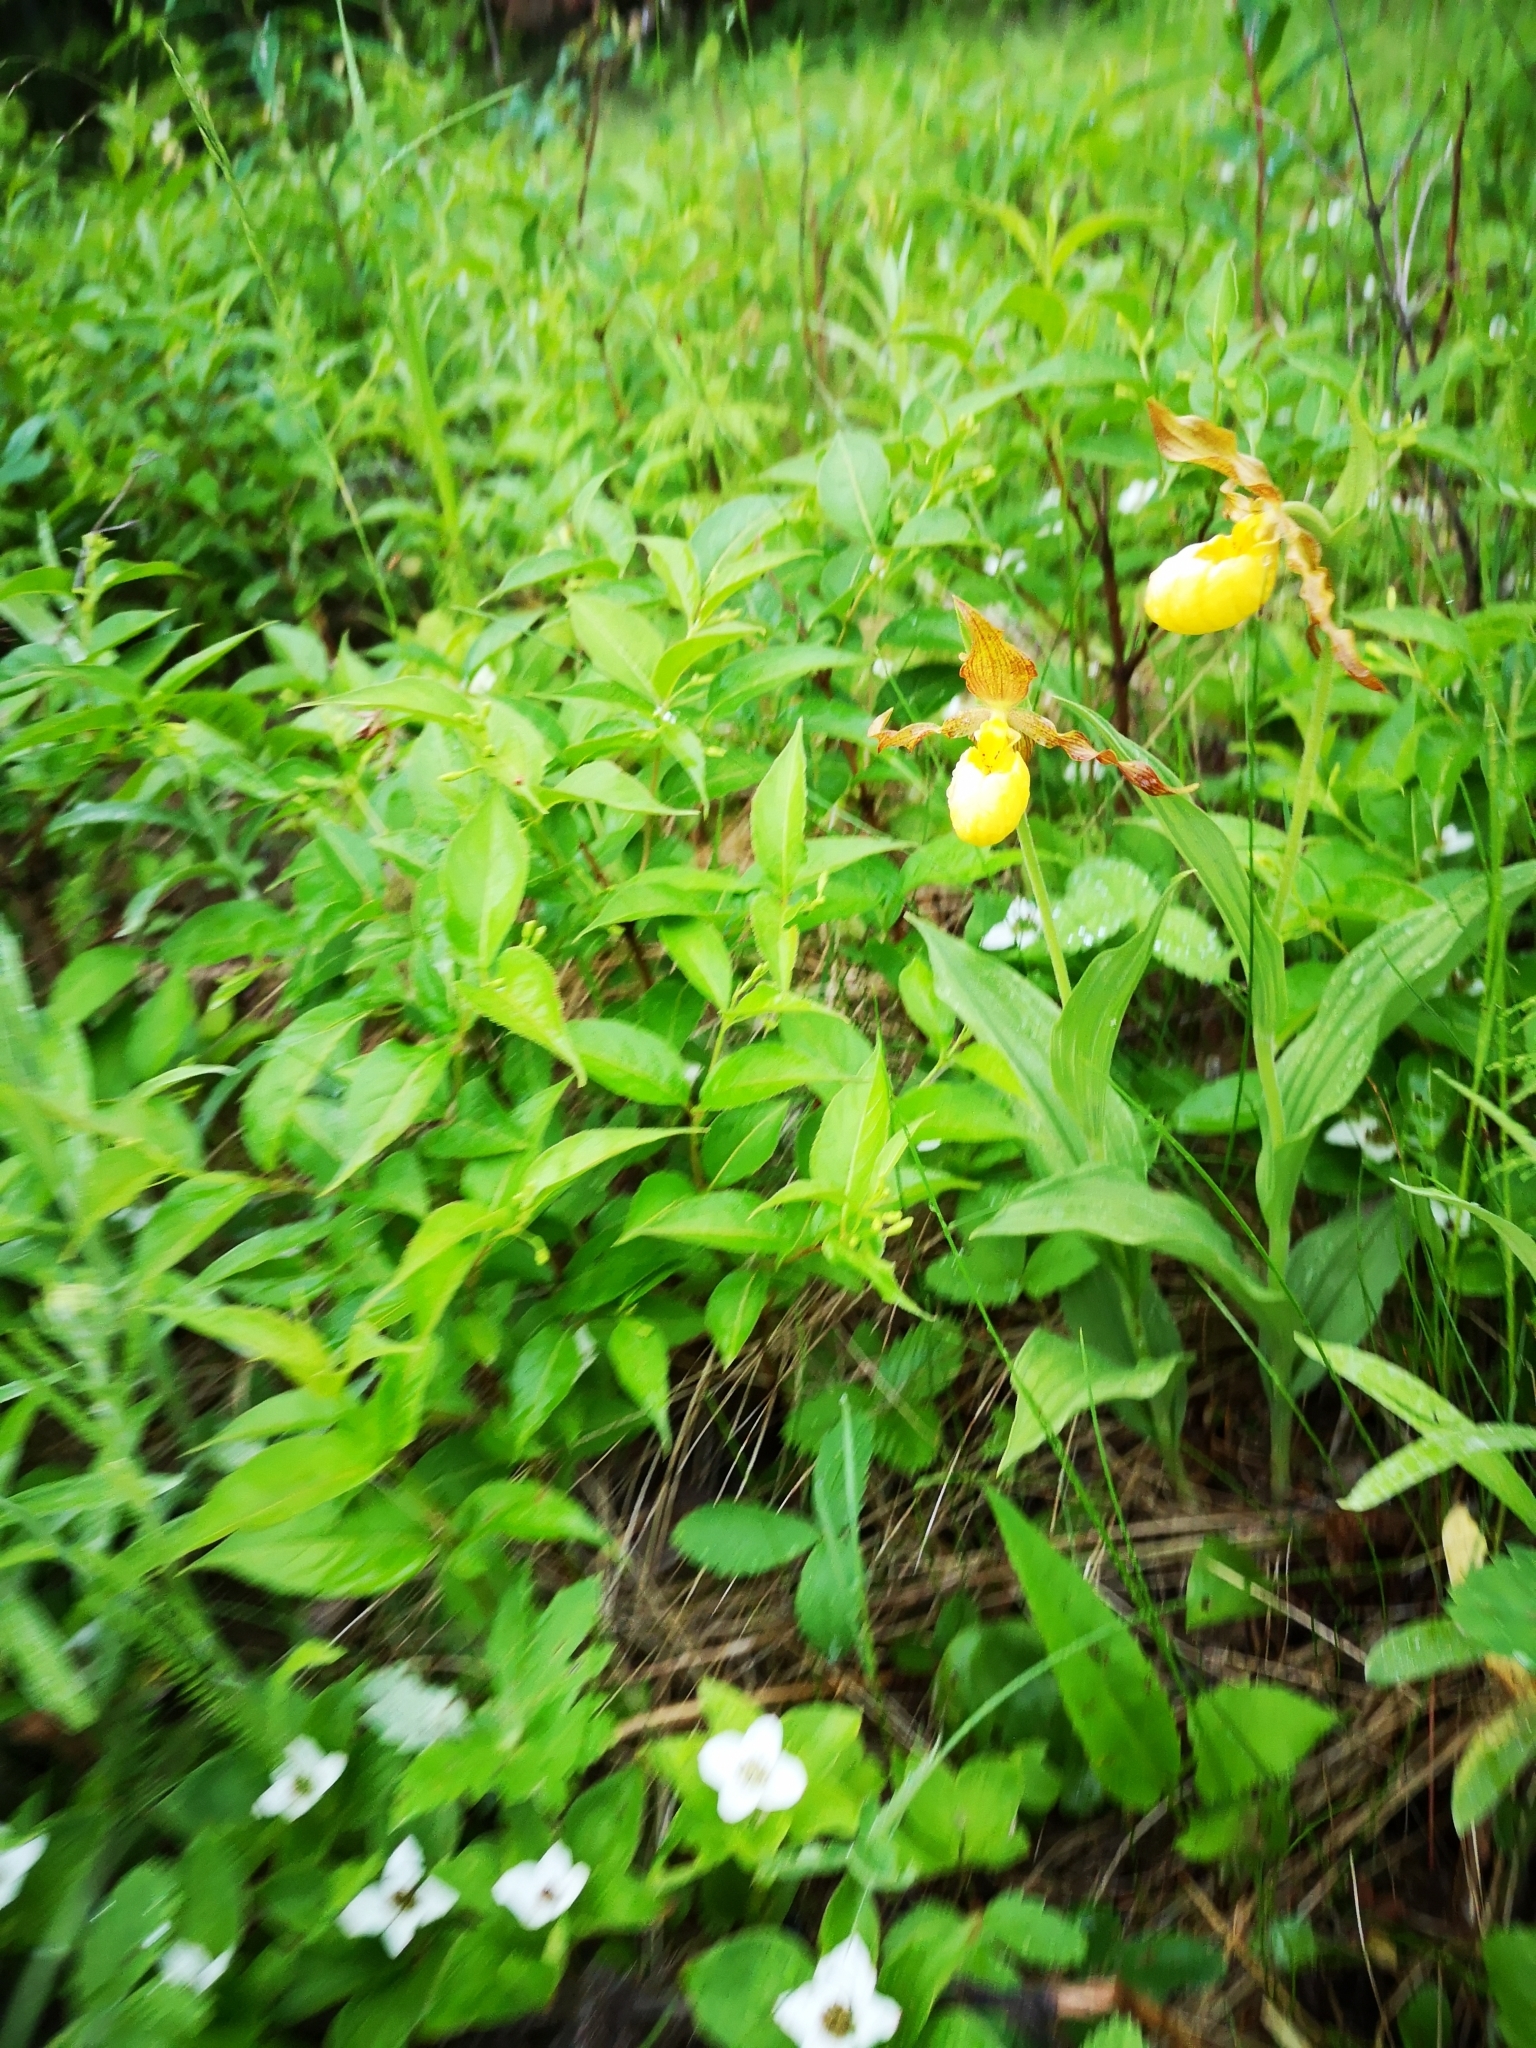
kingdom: Plantae
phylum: Tracheophyta
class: Liliopsida
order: Asparagales
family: Orchidaceae
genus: Cypripedium
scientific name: Cypripedium parviflorum
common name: American yellow lady's-slipper
